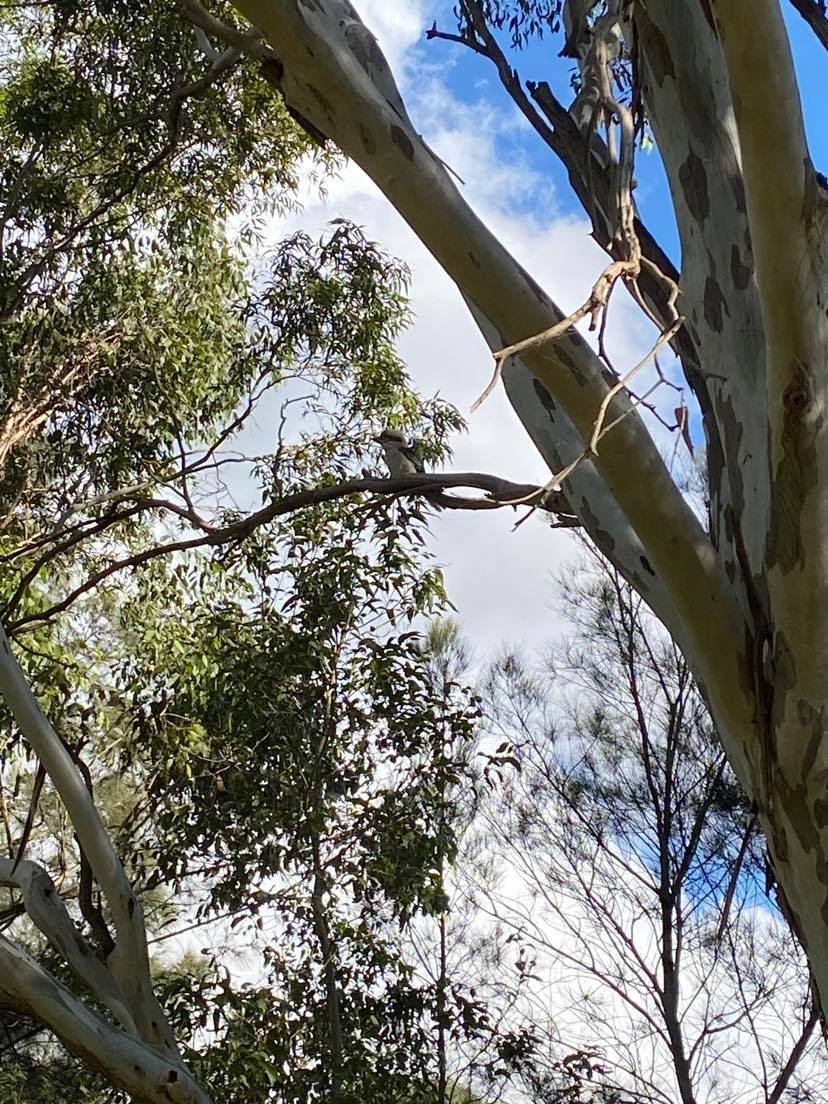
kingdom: Animalia
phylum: Chordata
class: Aves
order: Coraciiformes
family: Alcedinidae
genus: Dacelo
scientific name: Dacelo novaeguineae
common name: Laughing kookaburra
